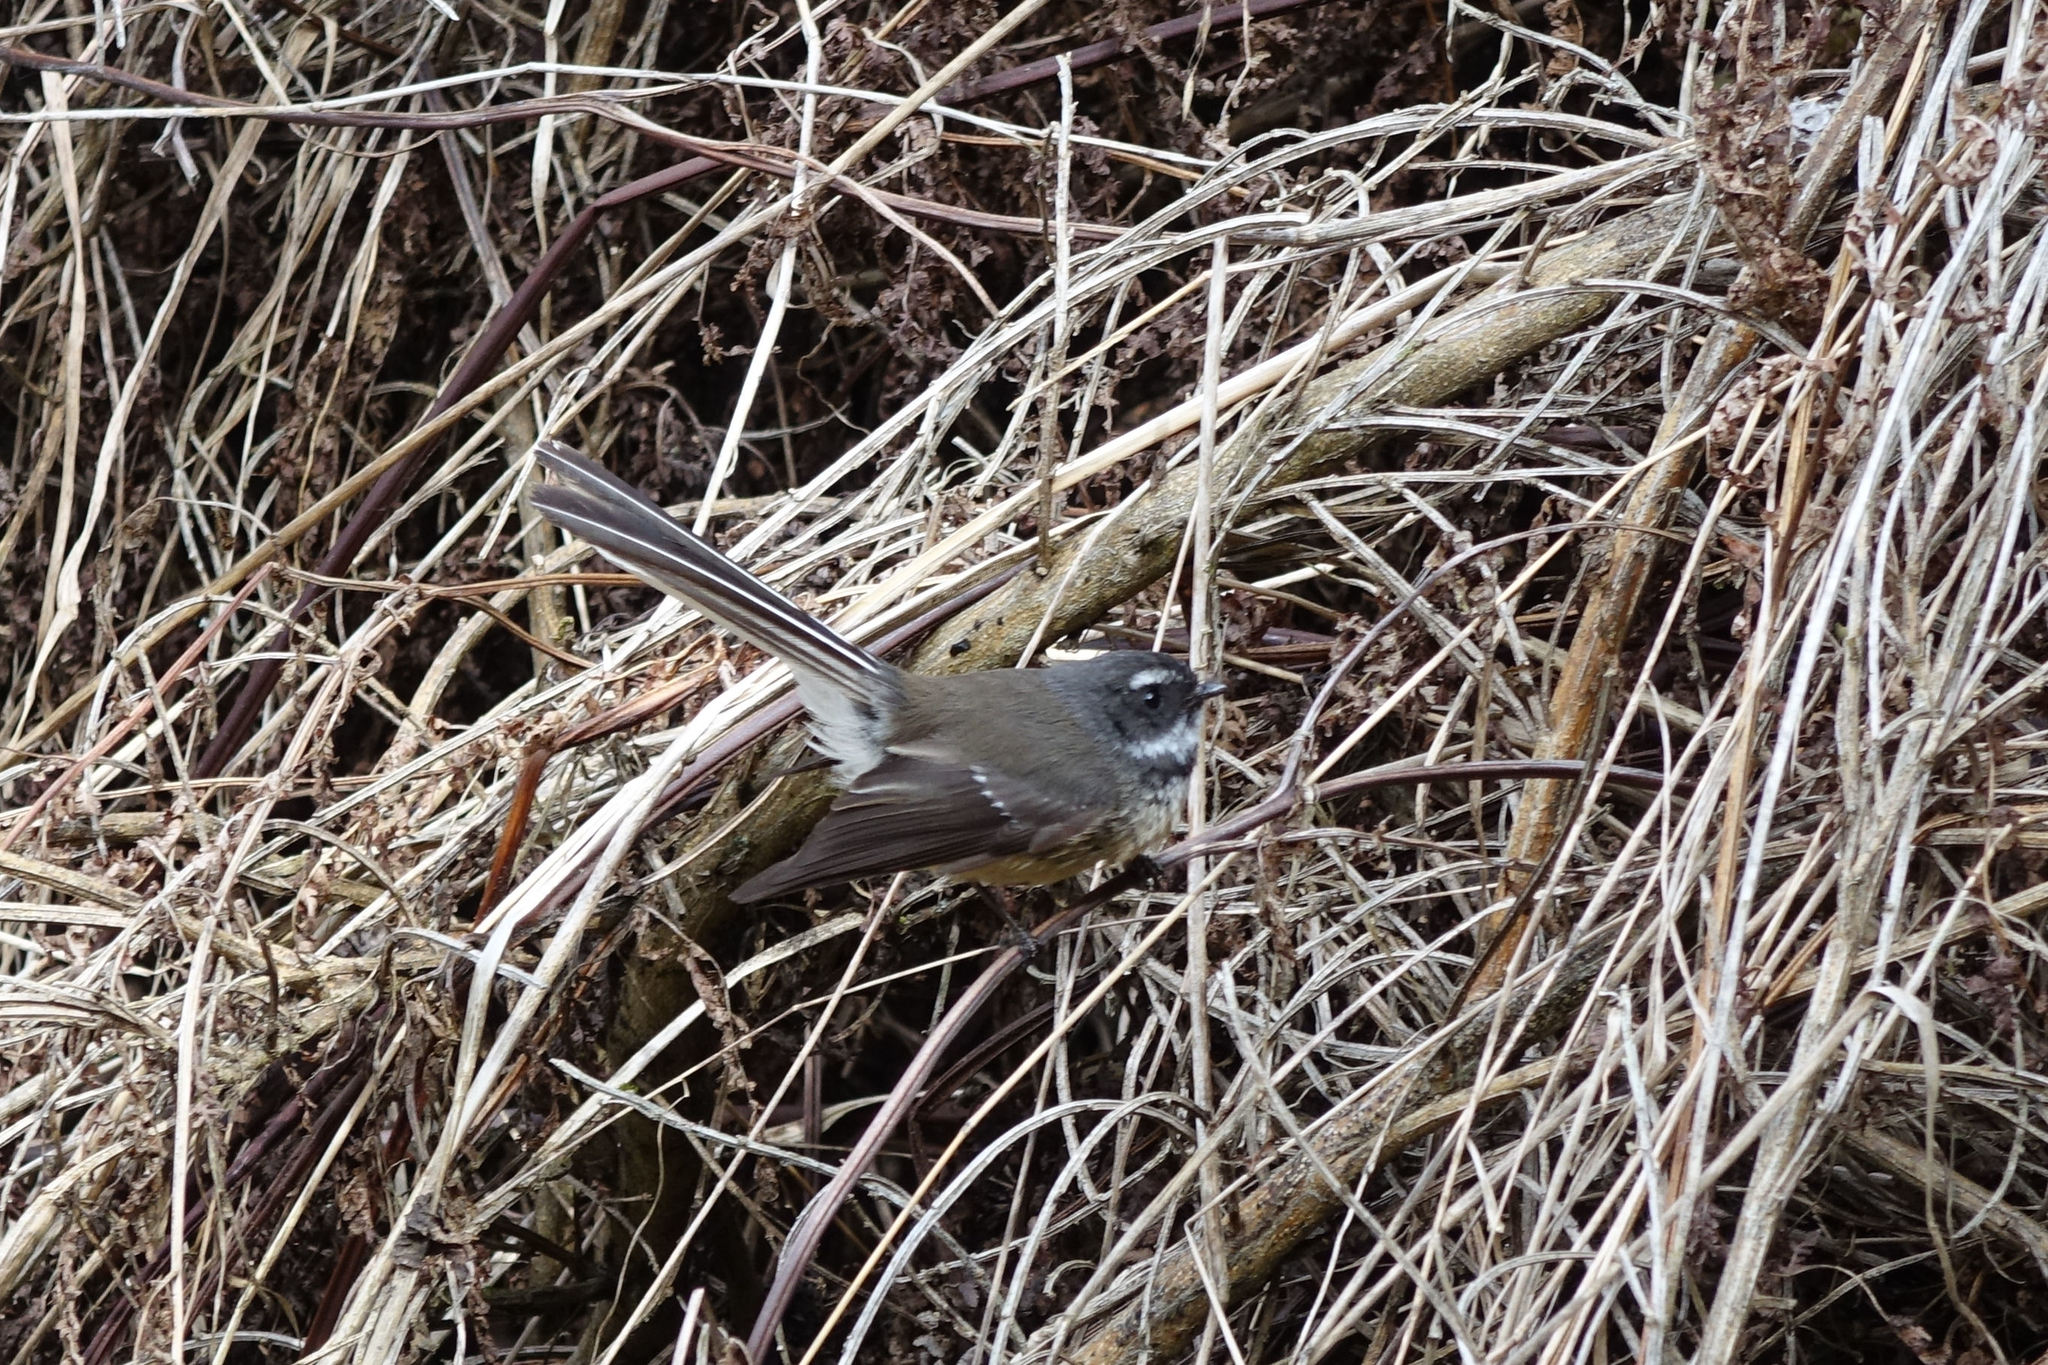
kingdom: Animalia
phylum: Chordata
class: Aves
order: Passeriformes
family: Rhipiduridae
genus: Rhipidura
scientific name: Rhipidura fuliginosa
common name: New zealand fantail
